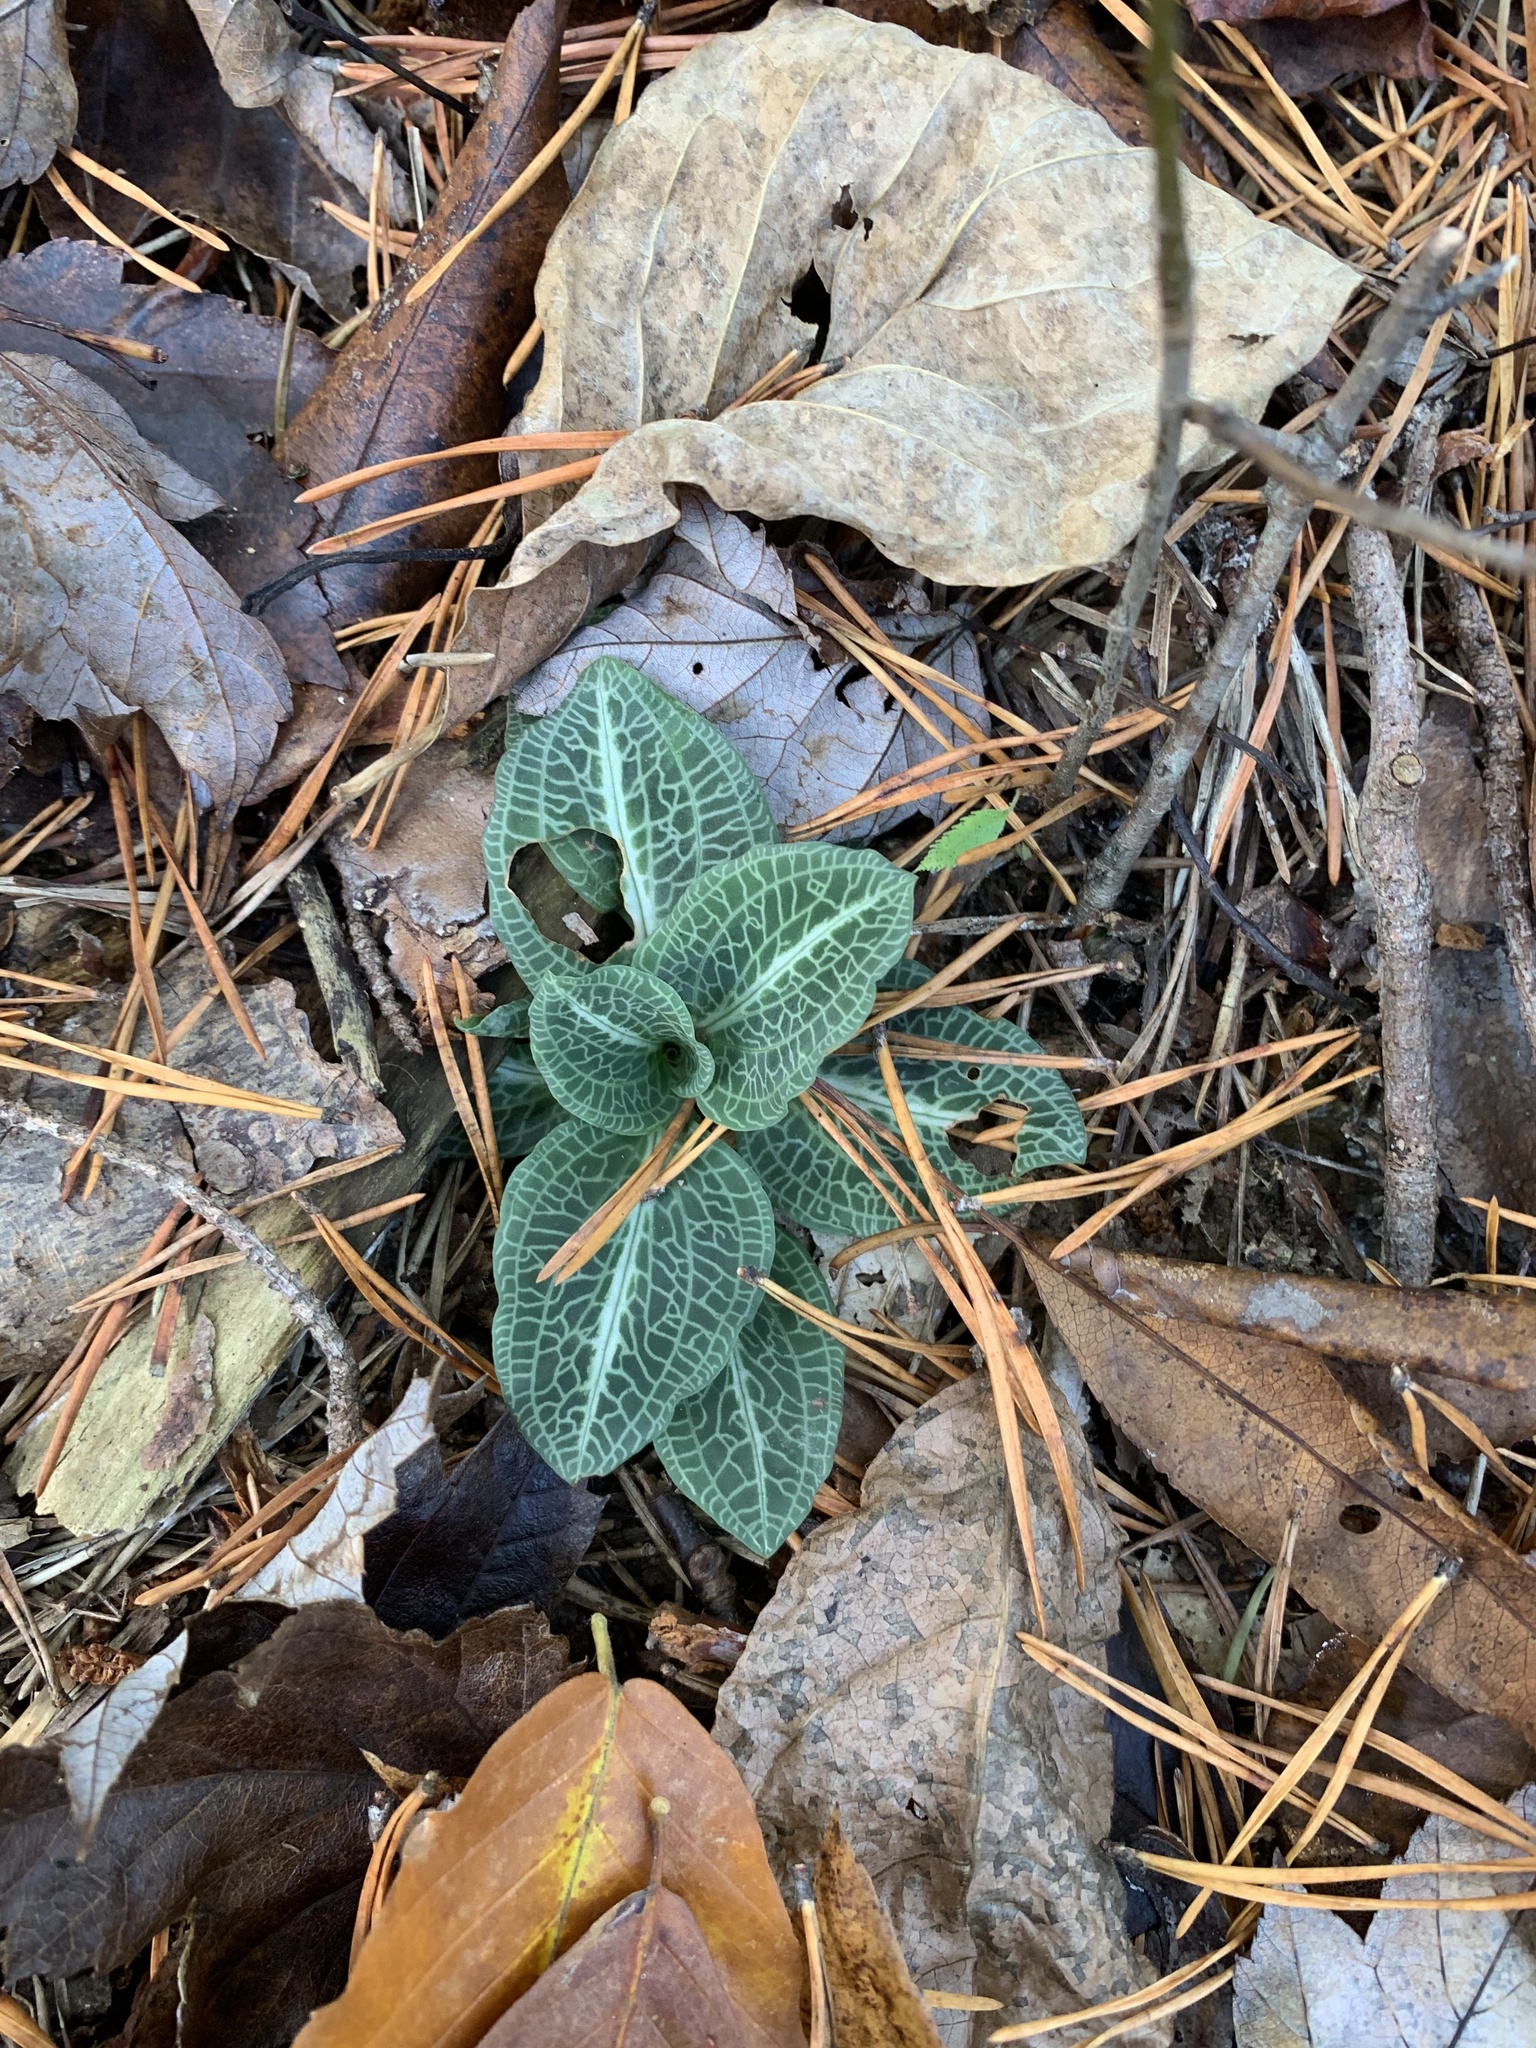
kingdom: Plantae
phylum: Tracheophyta
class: Liliopsida
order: Asparagales
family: Orchidaceae
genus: Goodyera
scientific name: Goodyera pubescens
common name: Downy rattlesnake-plantain
